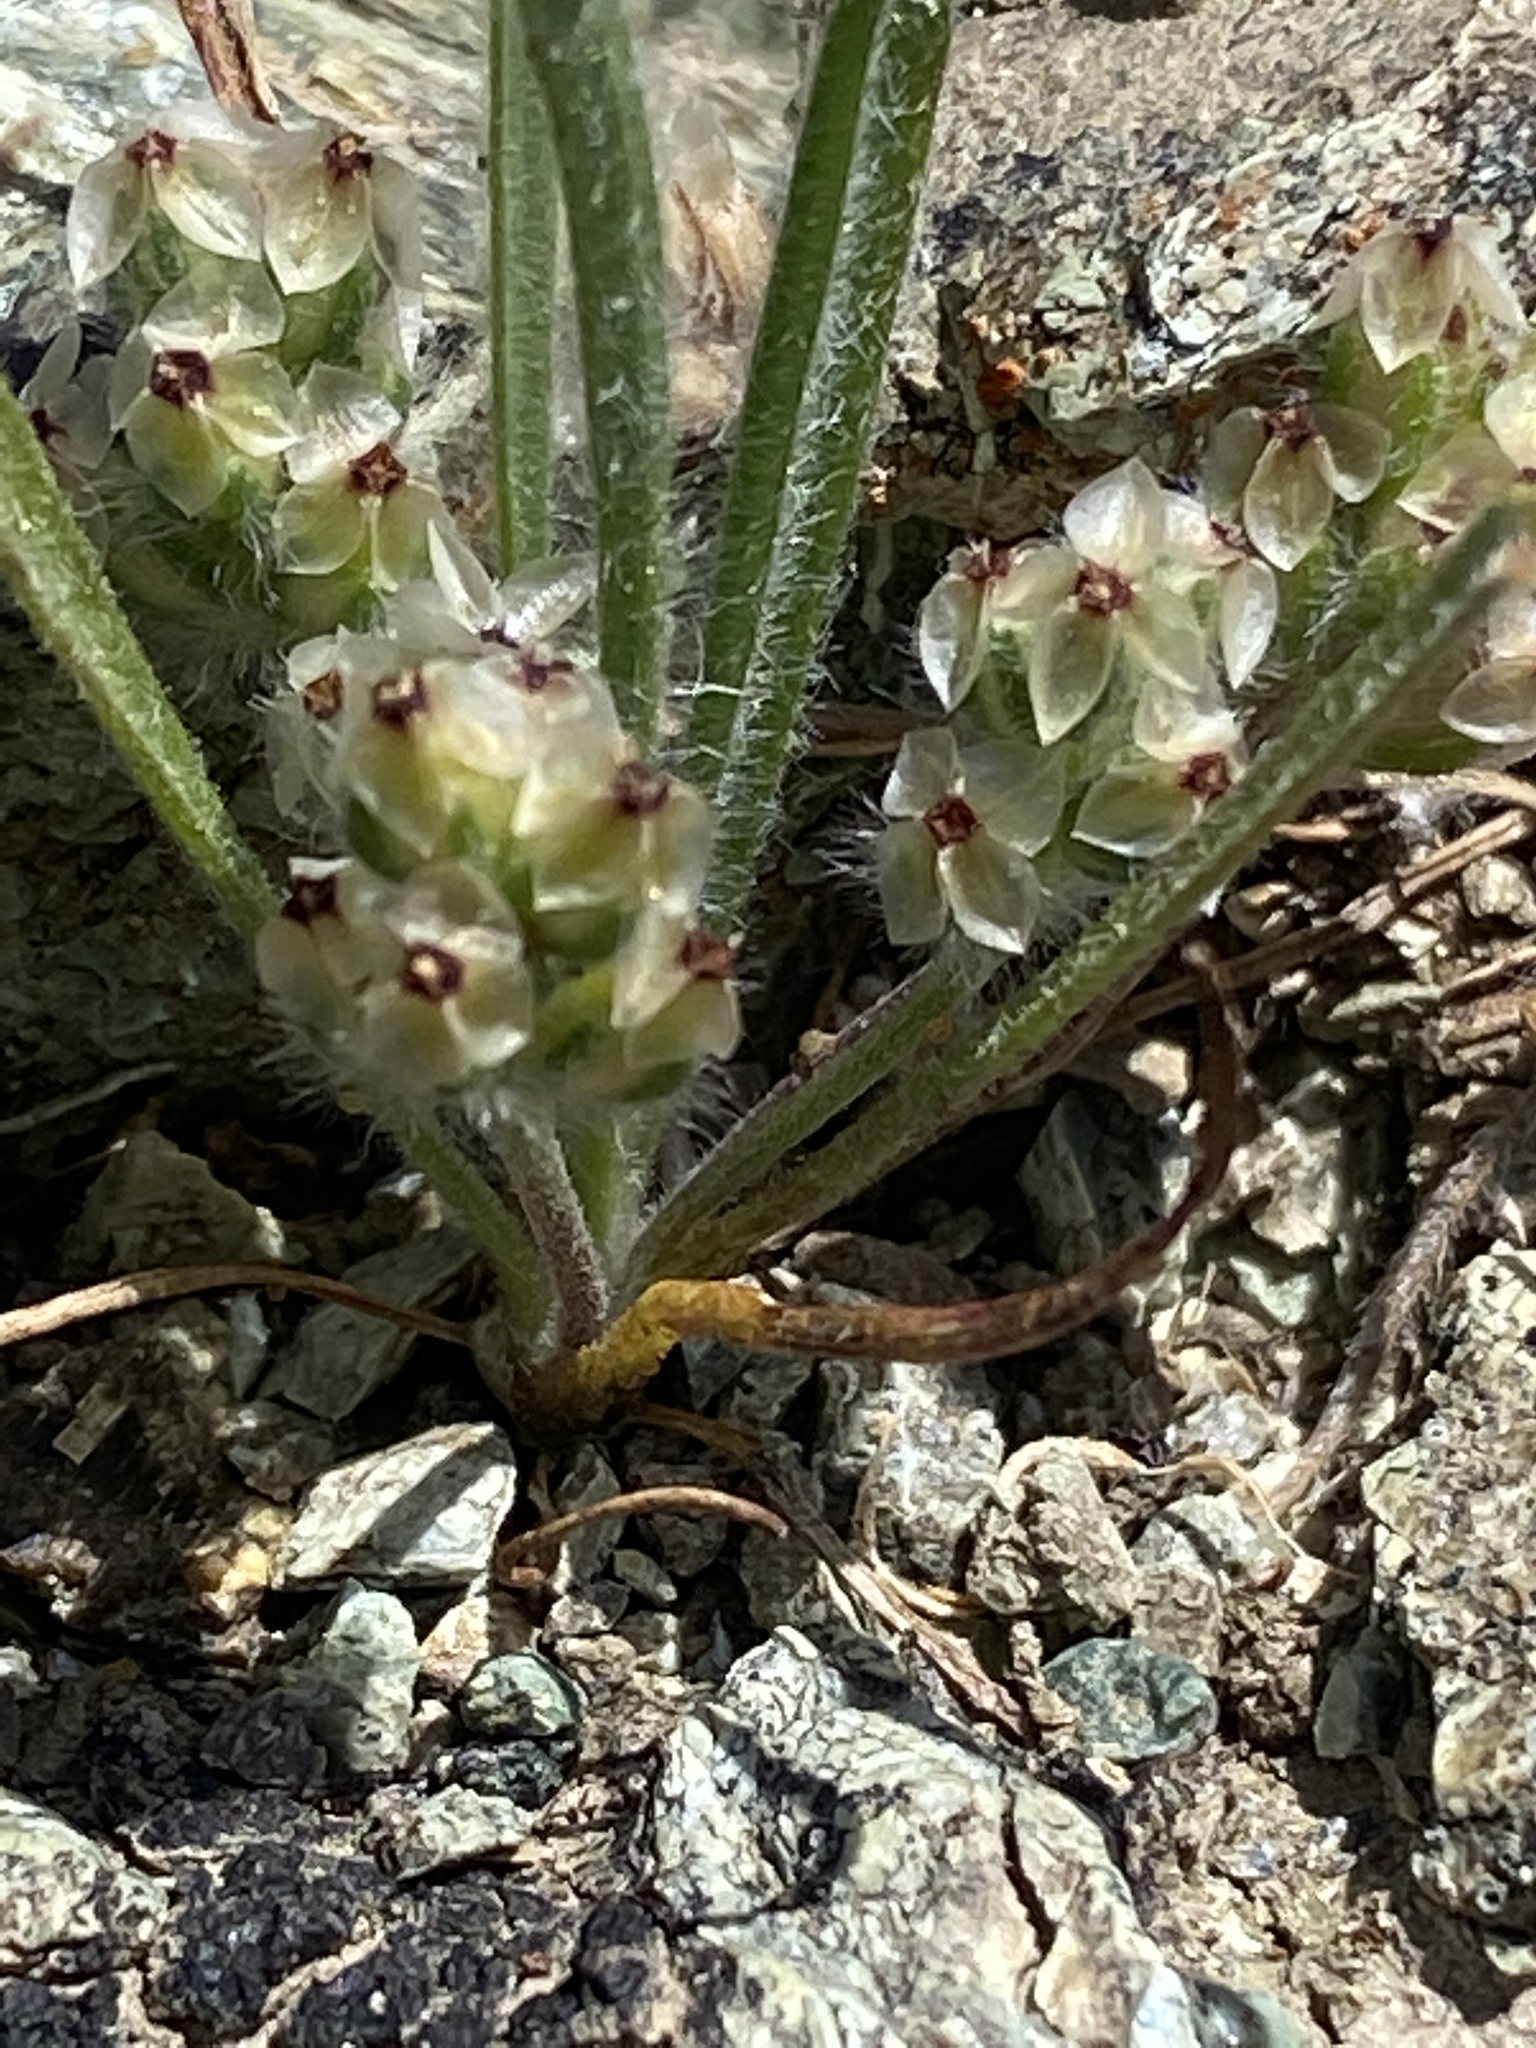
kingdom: Plantae
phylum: Tracheophyta
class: Magnoliopsida
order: Lamiales
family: Plantaginaceae
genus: Plantago
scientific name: Plantago erecta
